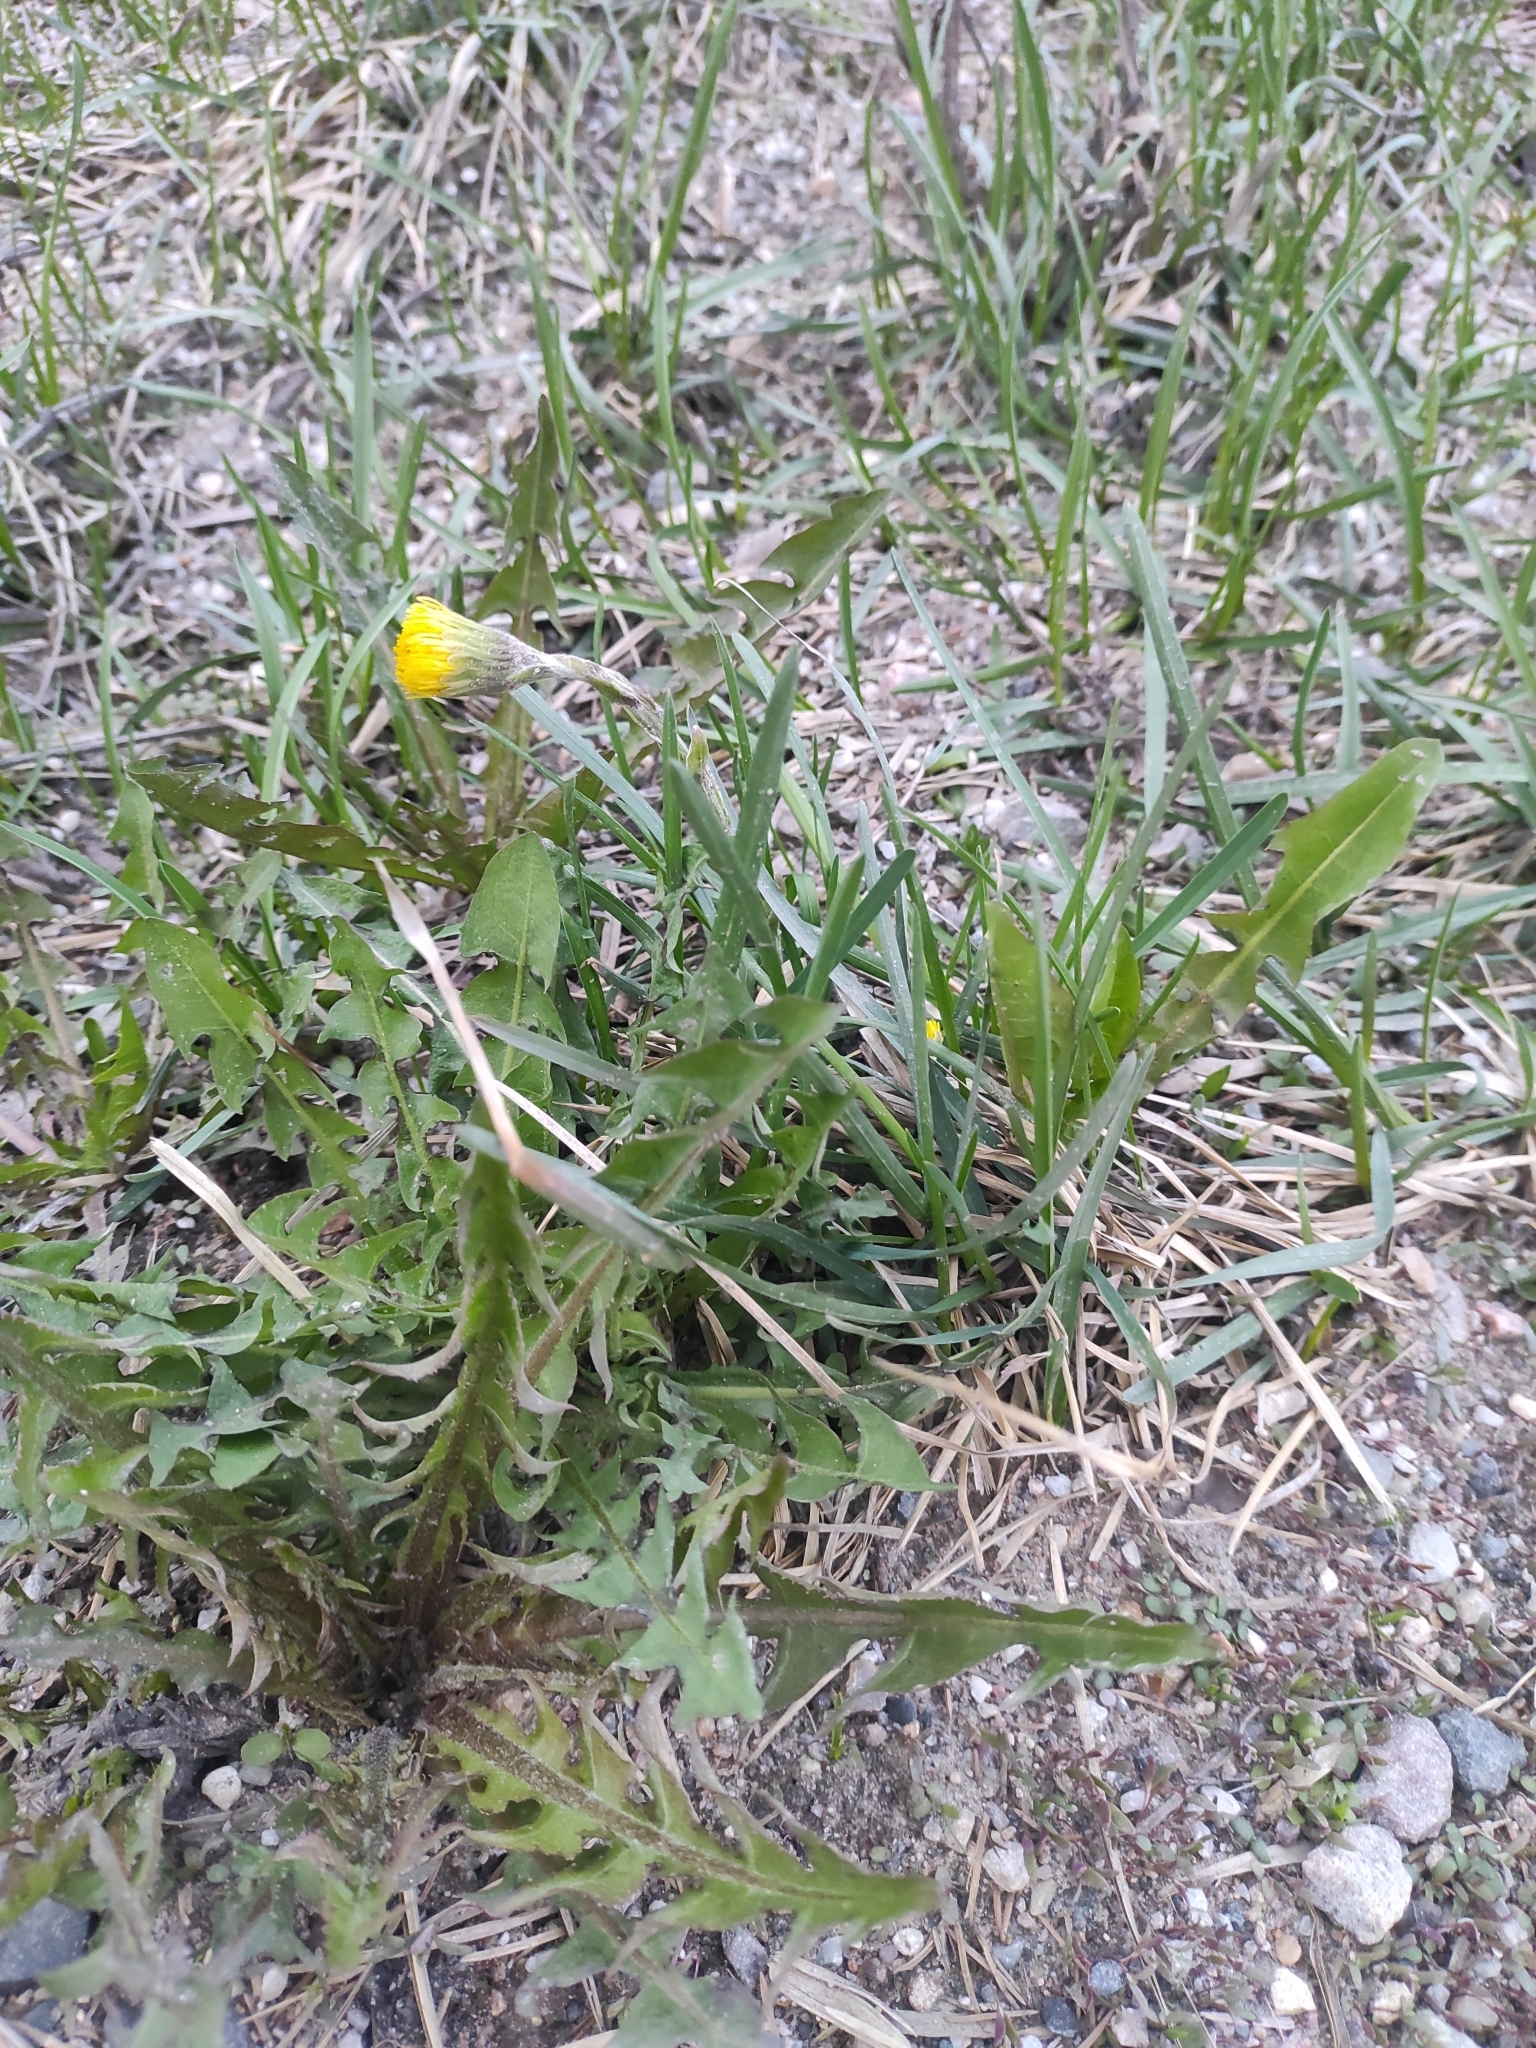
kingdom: Plantae
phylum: Tracheophyta
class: Magnoliopsida
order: Asterales
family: Asteraceae
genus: Tussilago
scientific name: Tussilago farfara
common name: Coltsfoot
